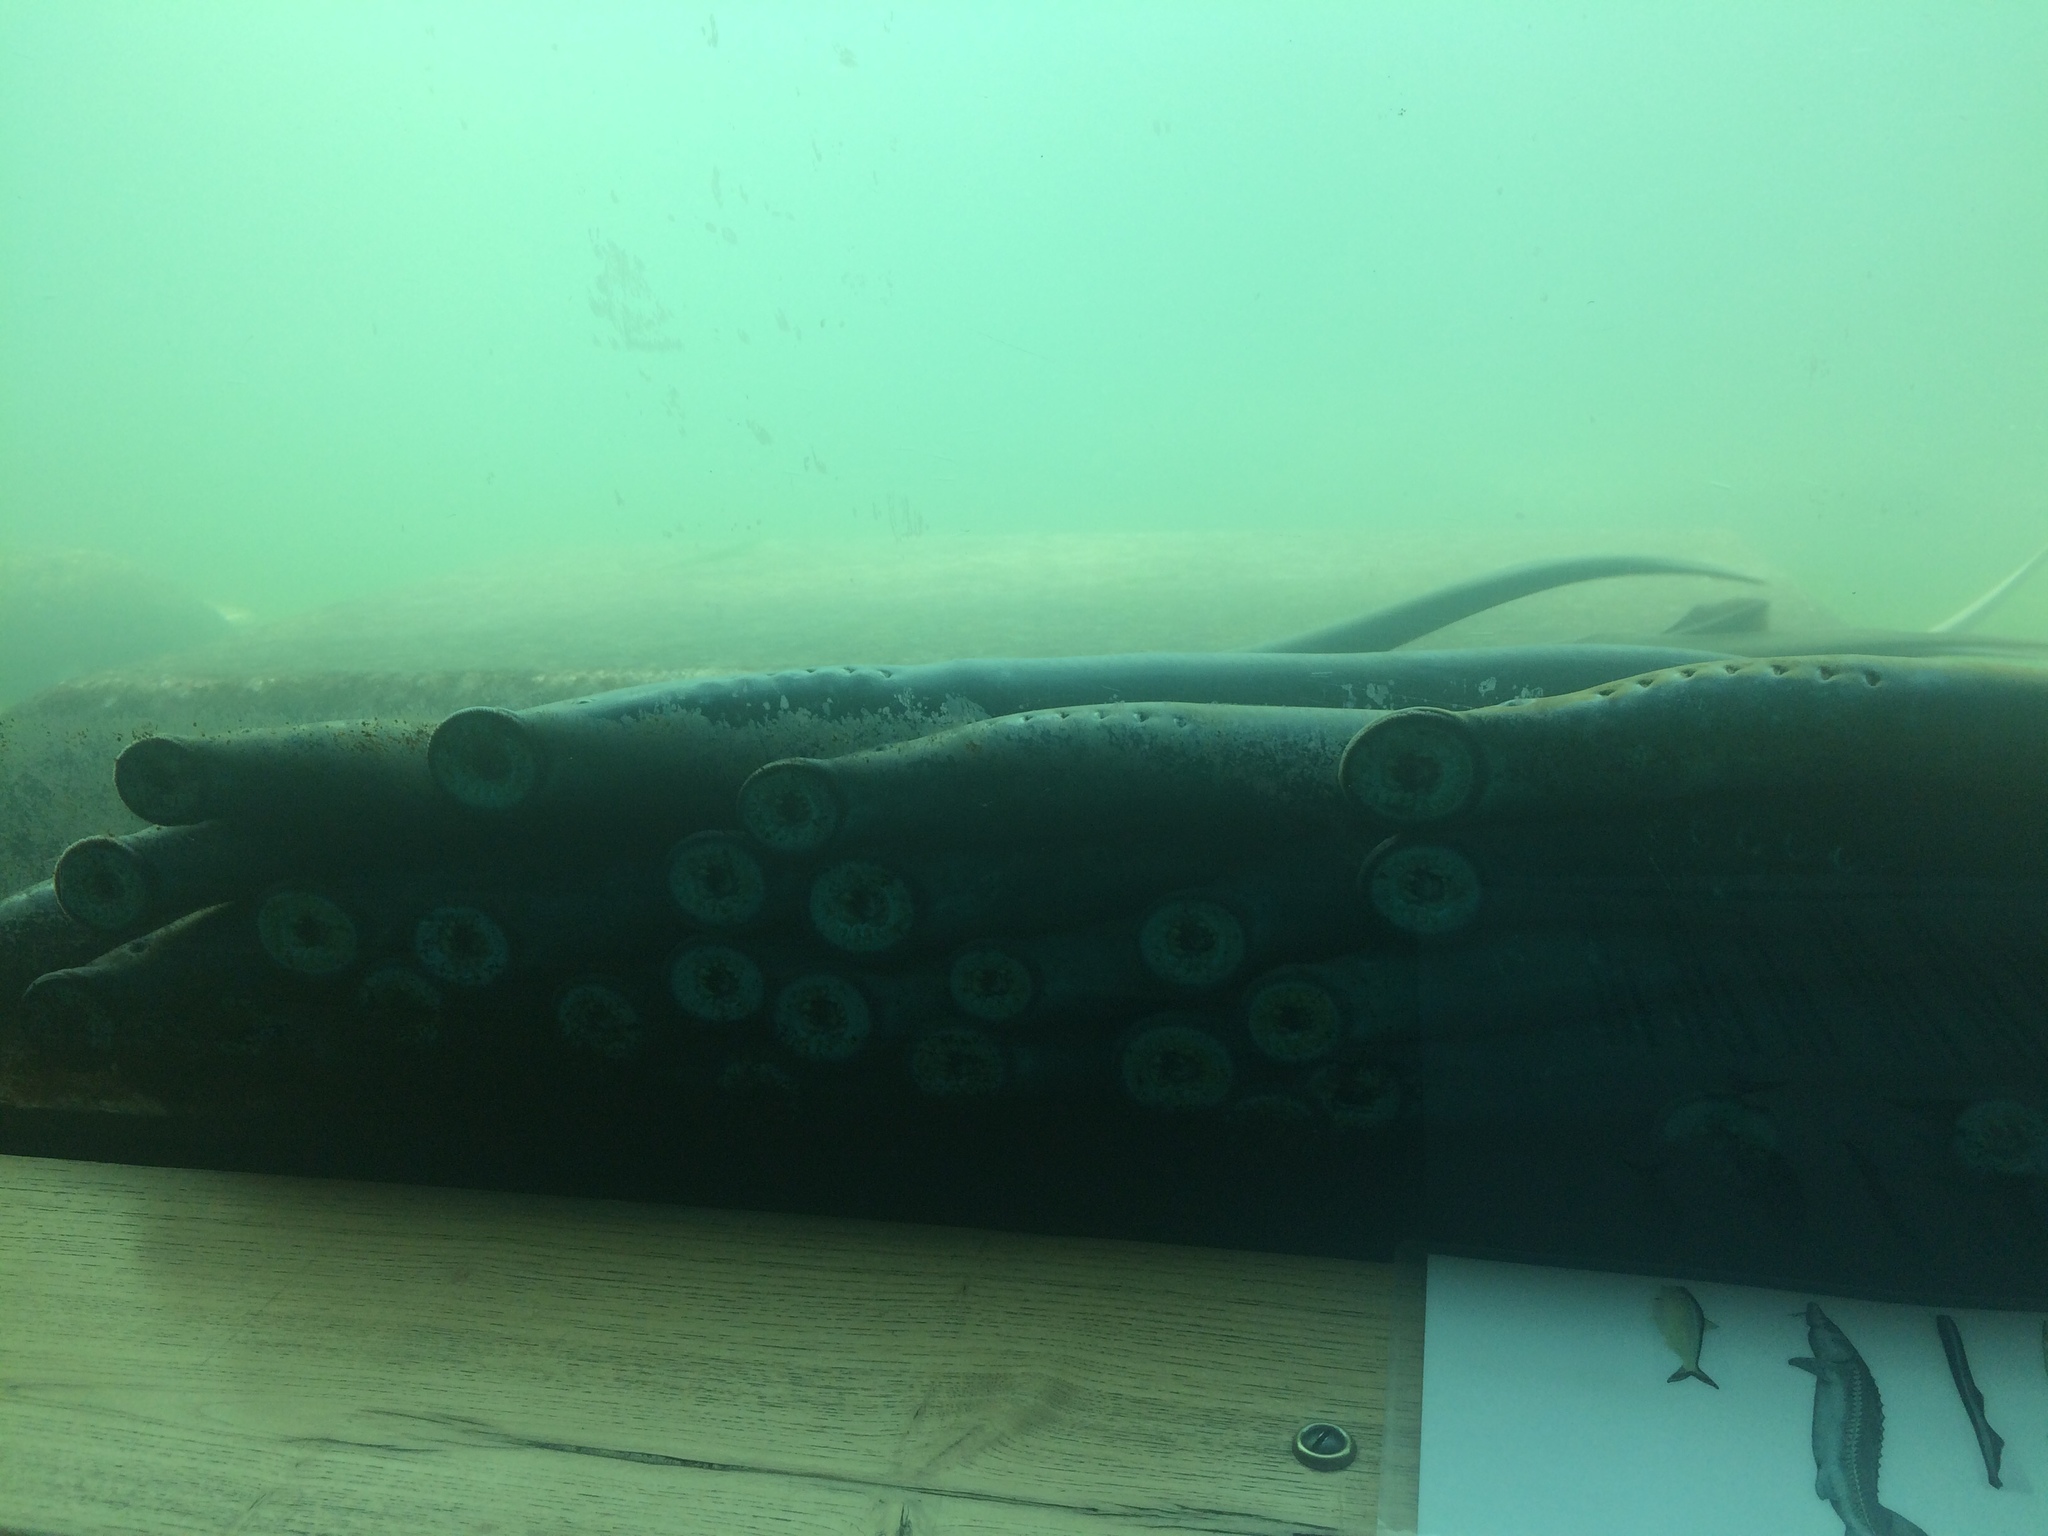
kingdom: Animalia
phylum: Chordata
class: Petromyzonti
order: Petromyzontiformes
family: Petromyzontidae
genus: Entosphenus
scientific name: Entosphenus tridentatus
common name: Pacific lamprey
